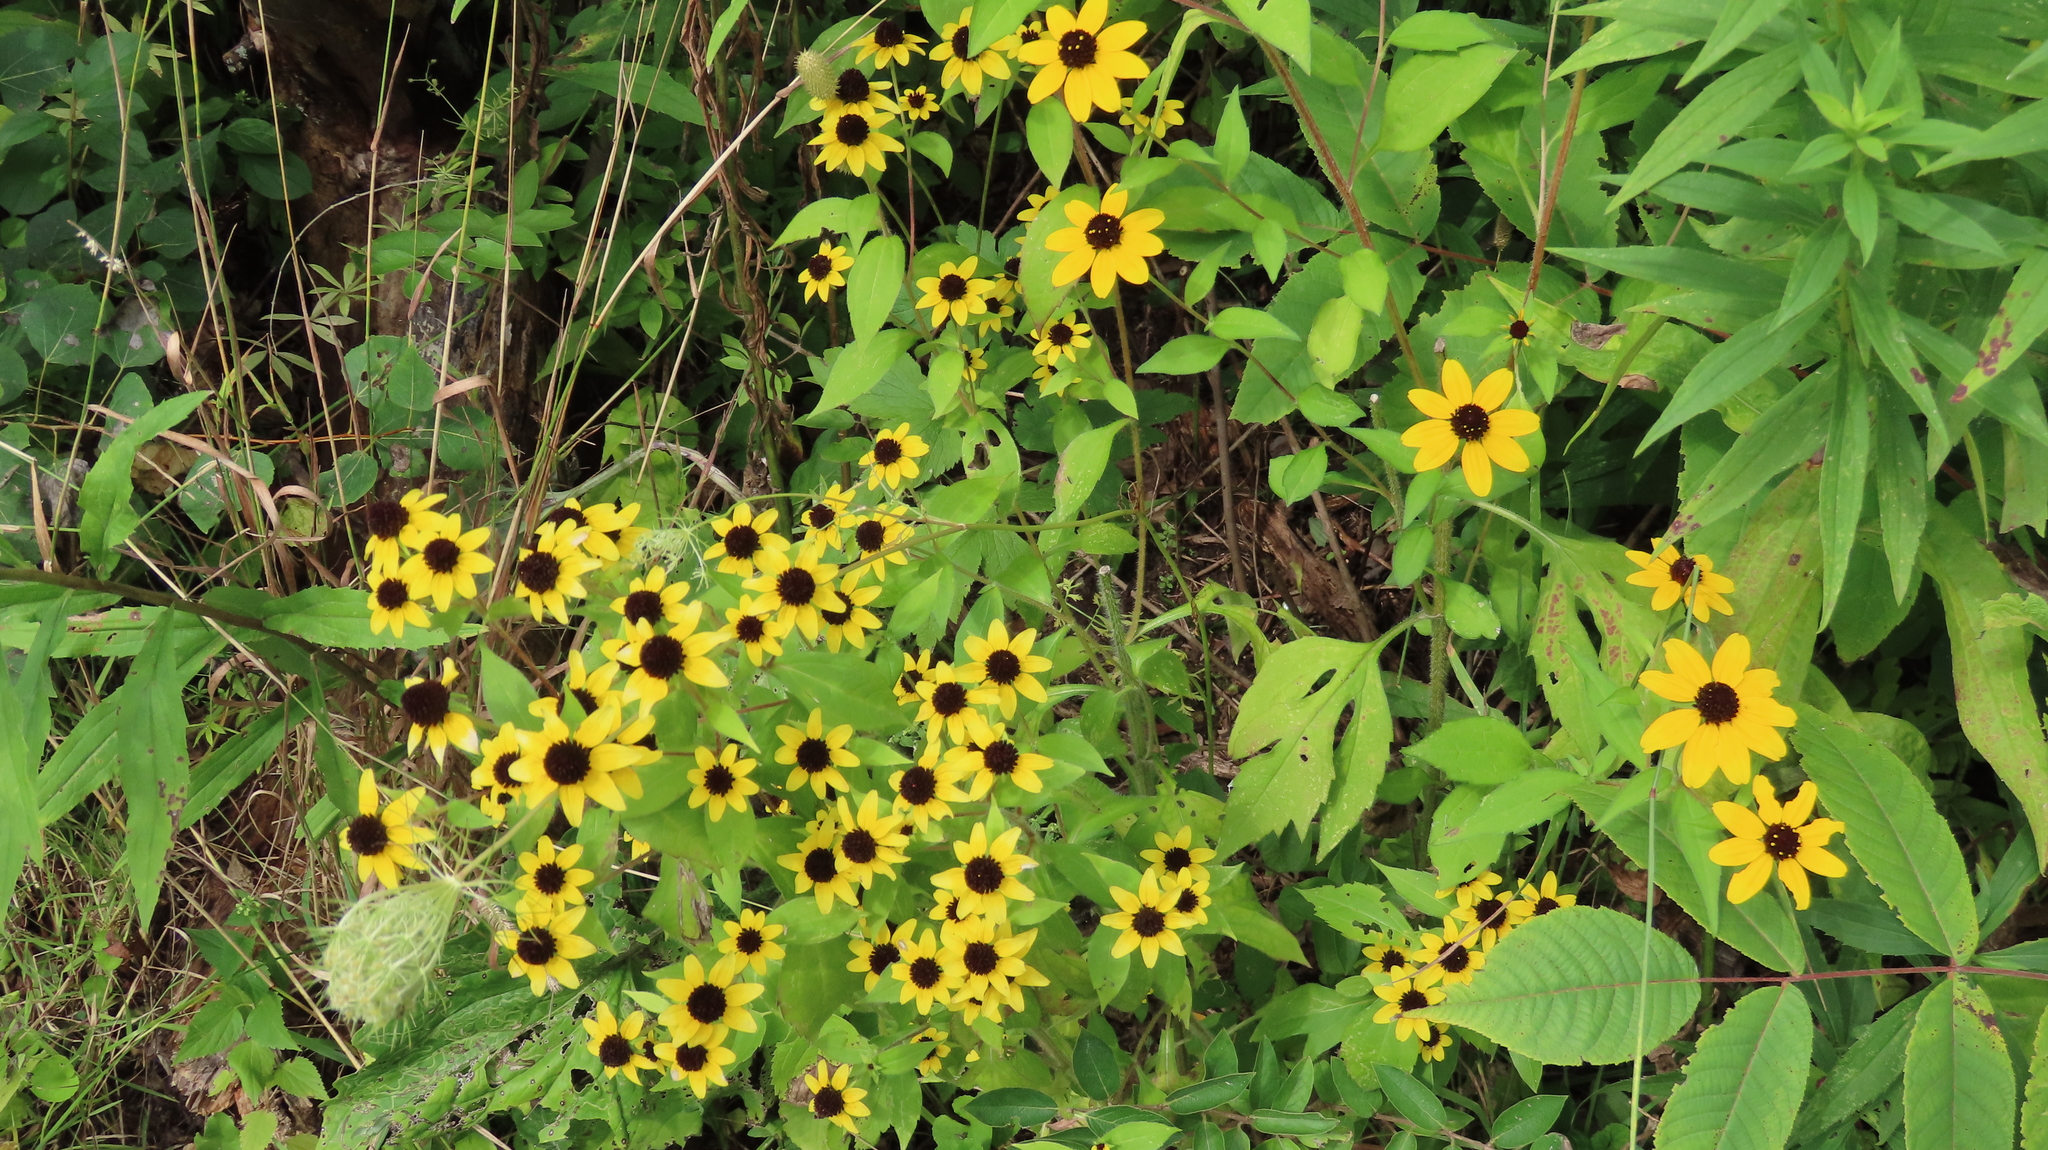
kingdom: Plantae
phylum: Tracheophyta
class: Magnoliopsida
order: Asterales
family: Asteraceae
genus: Rudbeckia
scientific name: Rudbeckia triloba
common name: Thin-leaved coneflower
